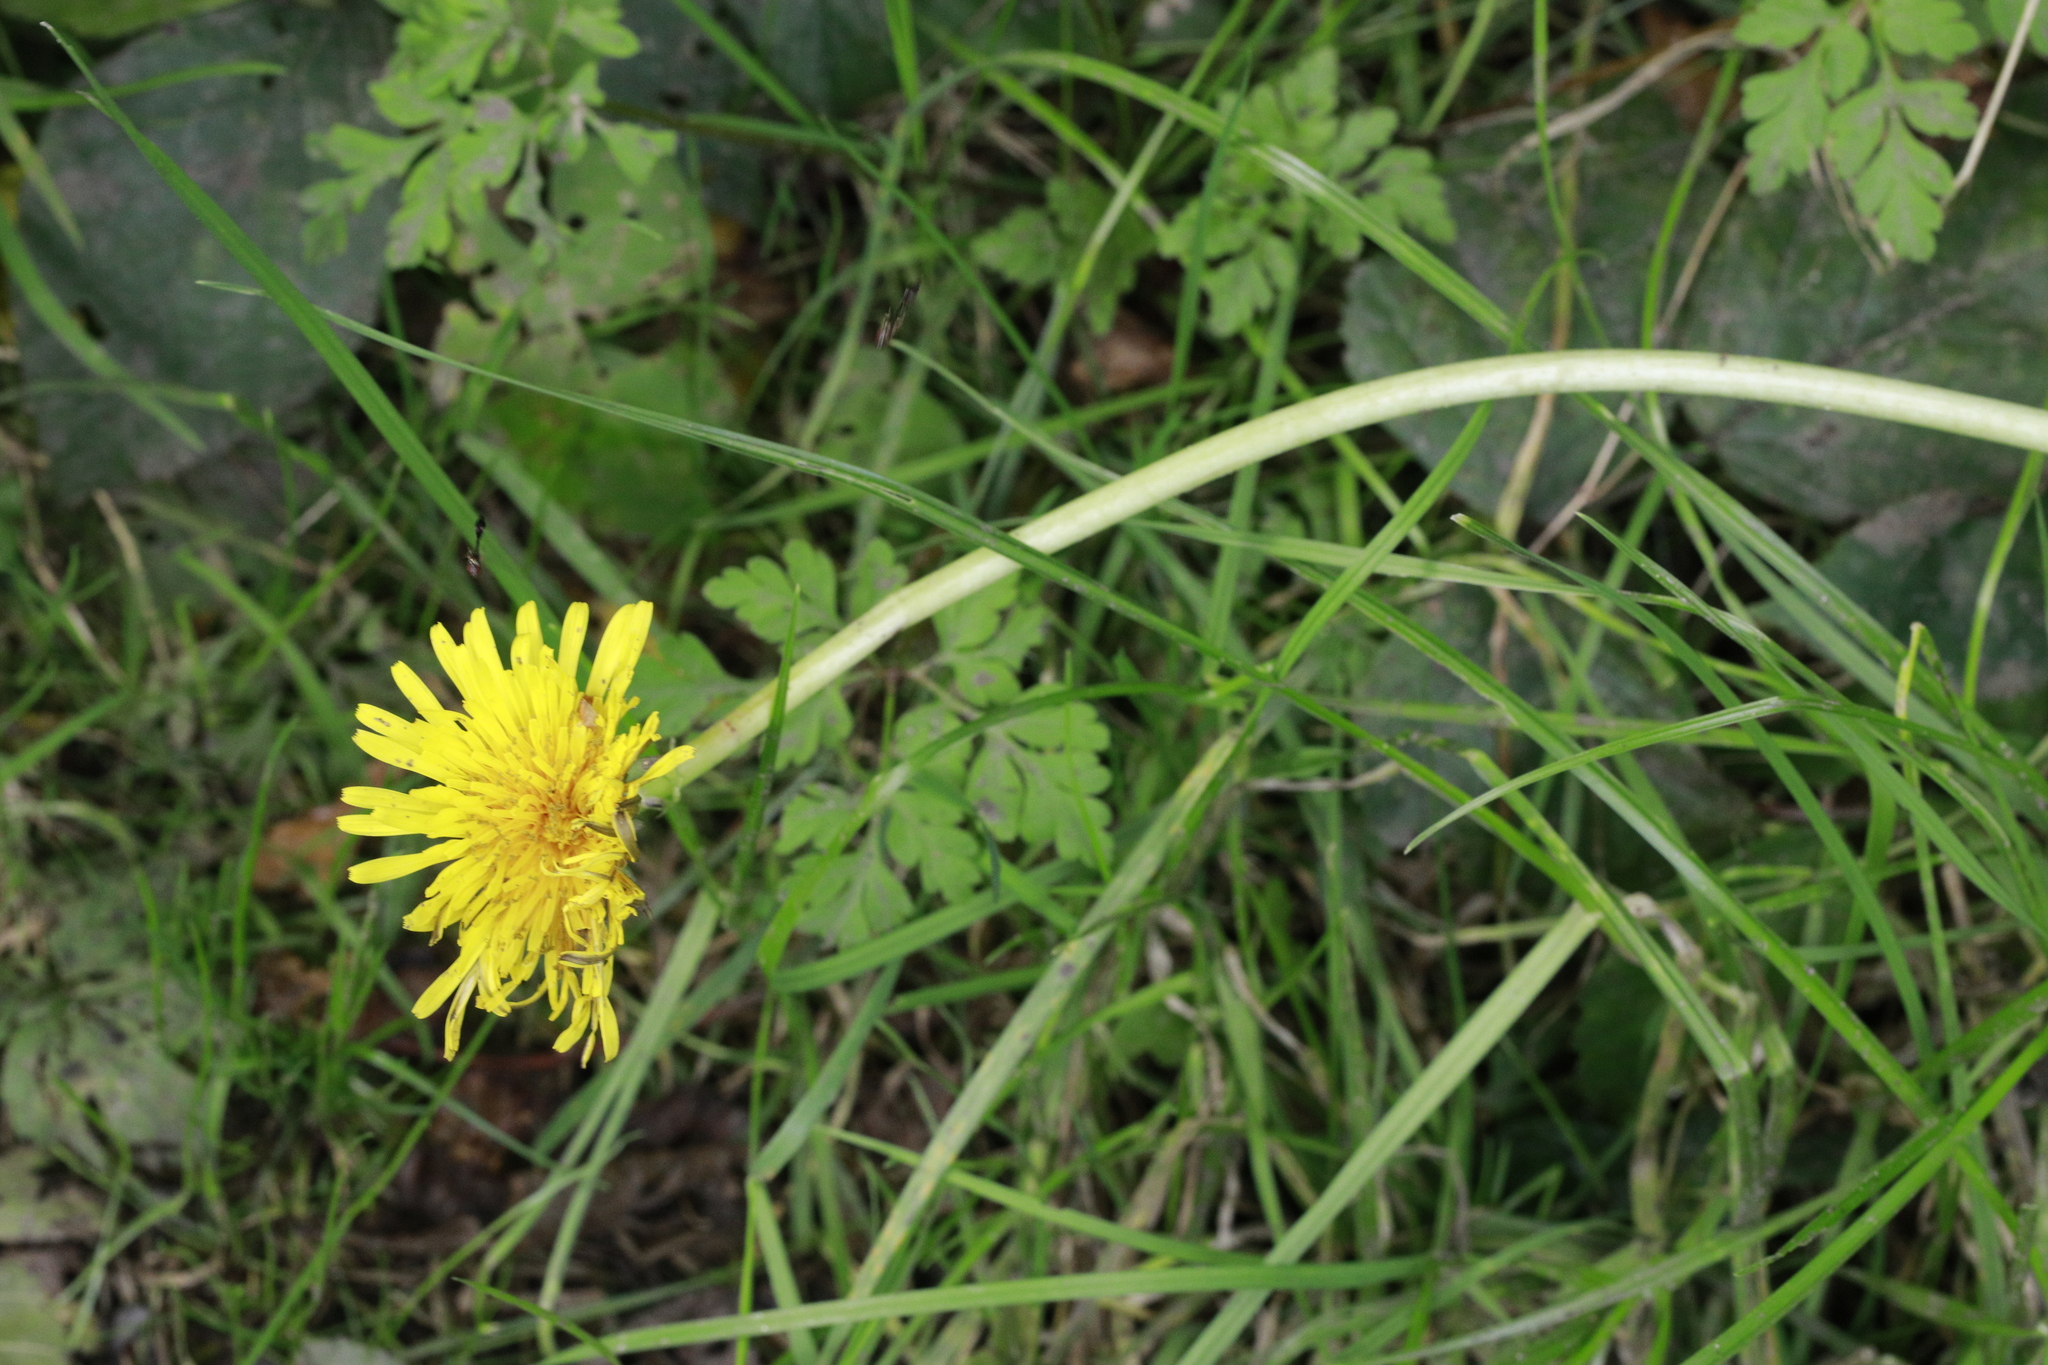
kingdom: Plantae
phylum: Tracheophyta
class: Magnoliopsida
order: Asterales
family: Asteraceae
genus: Taraxacum
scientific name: Taraxacum officinale
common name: Common dandelion
